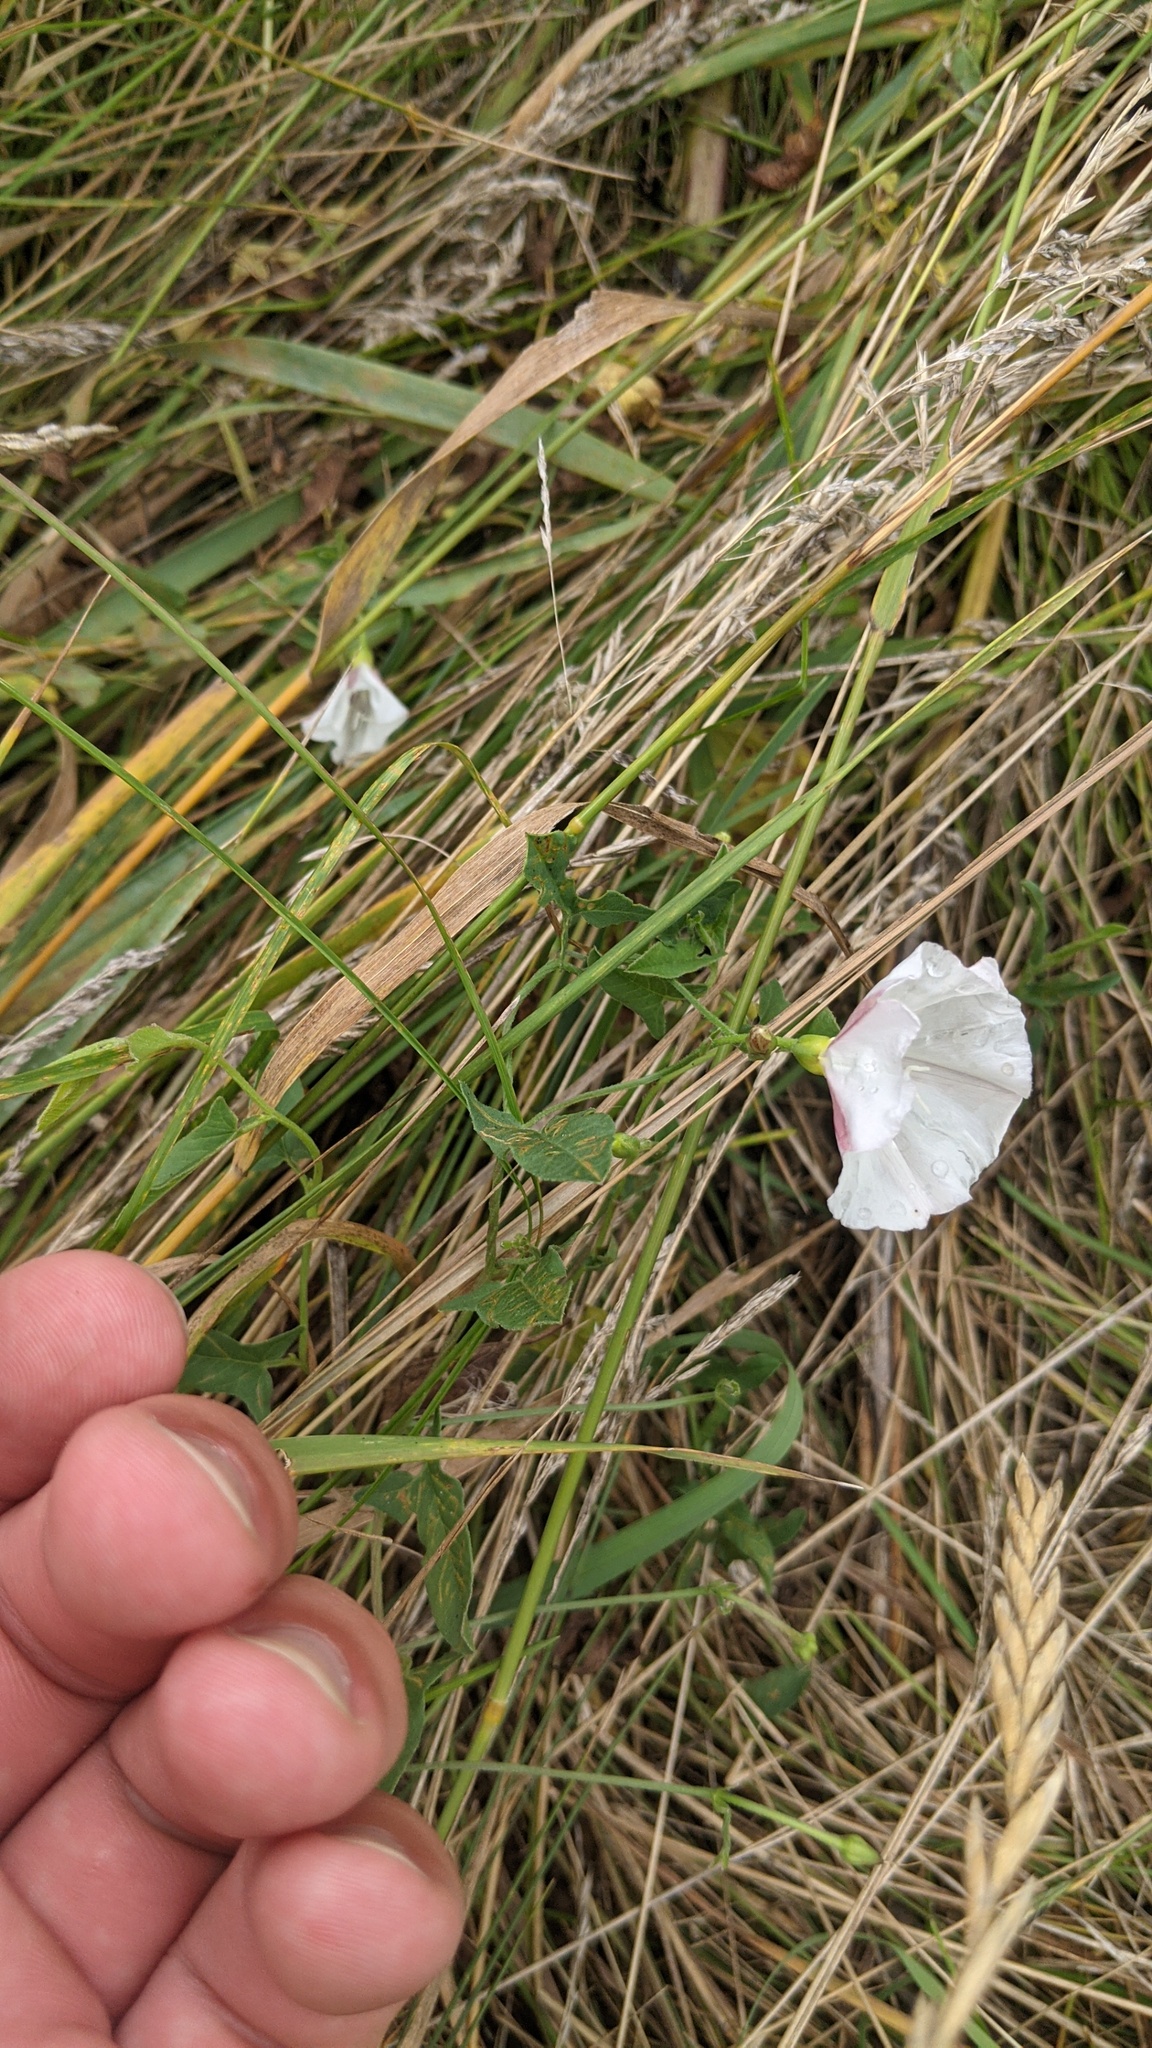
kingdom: Plantae
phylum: Tracheophyta
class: Magnoliopsida
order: Solanales
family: Convolvulaceae
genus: Convolvulus
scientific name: Convolvulus arvensis
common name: Field bindweed
